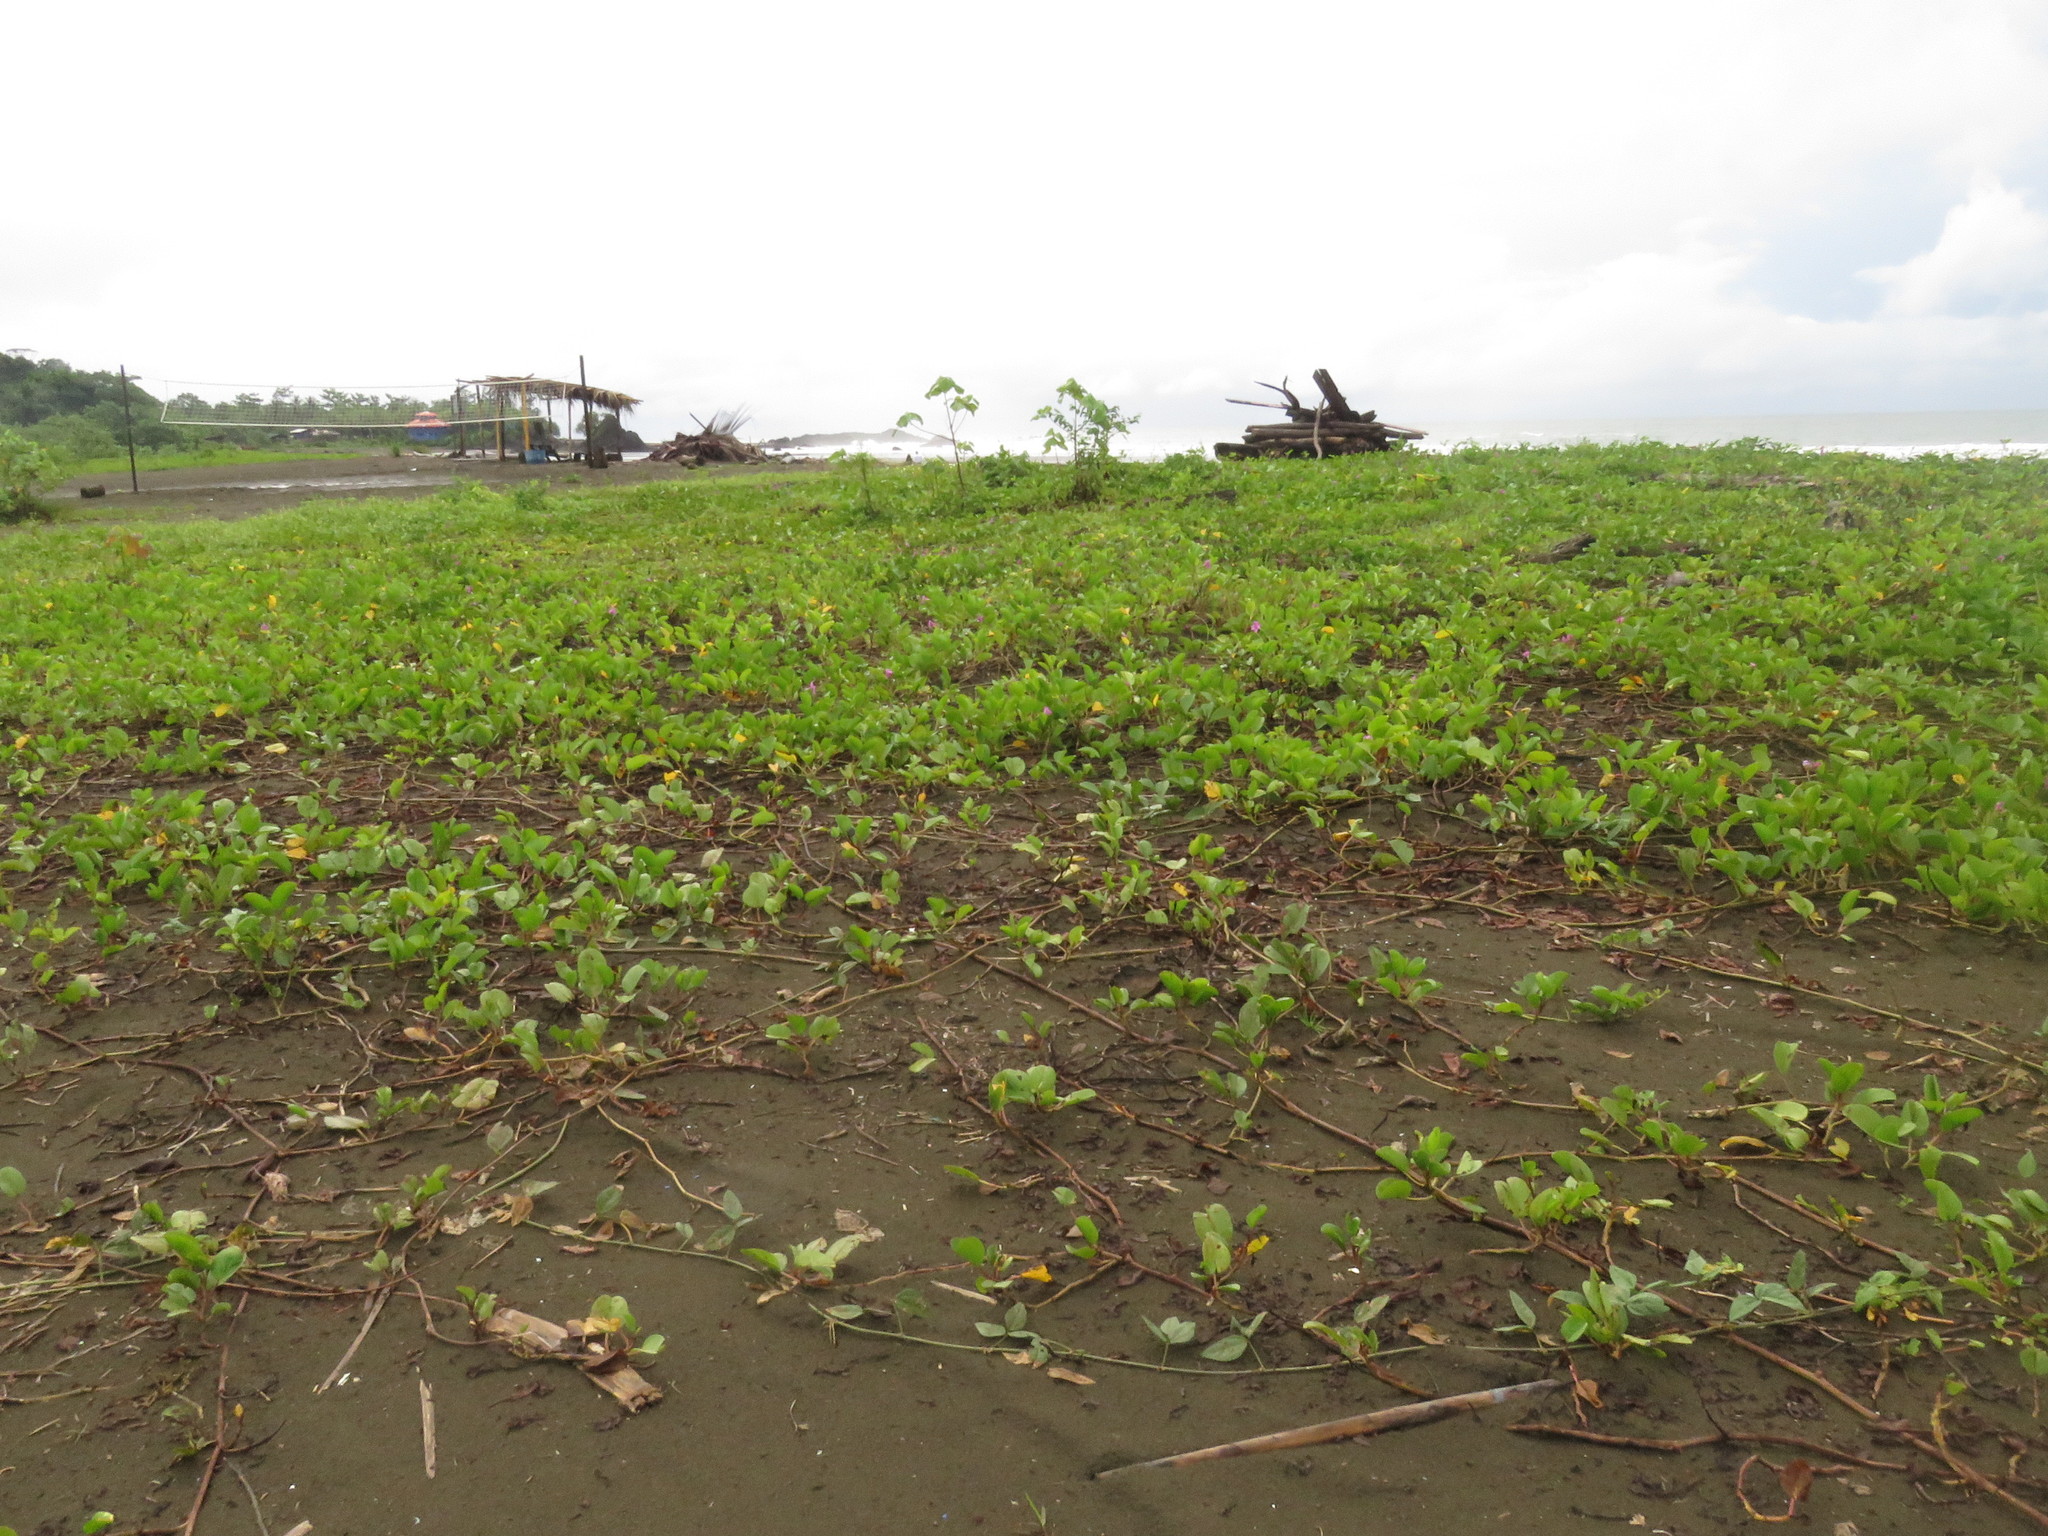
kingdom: Plantae
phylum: Tracheophyta
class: Magnoliopsida
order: Solanales
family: Convolvulaceae
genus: Ipomoea
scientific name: Ipomoea pes-caprae
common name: Beach morning glory
